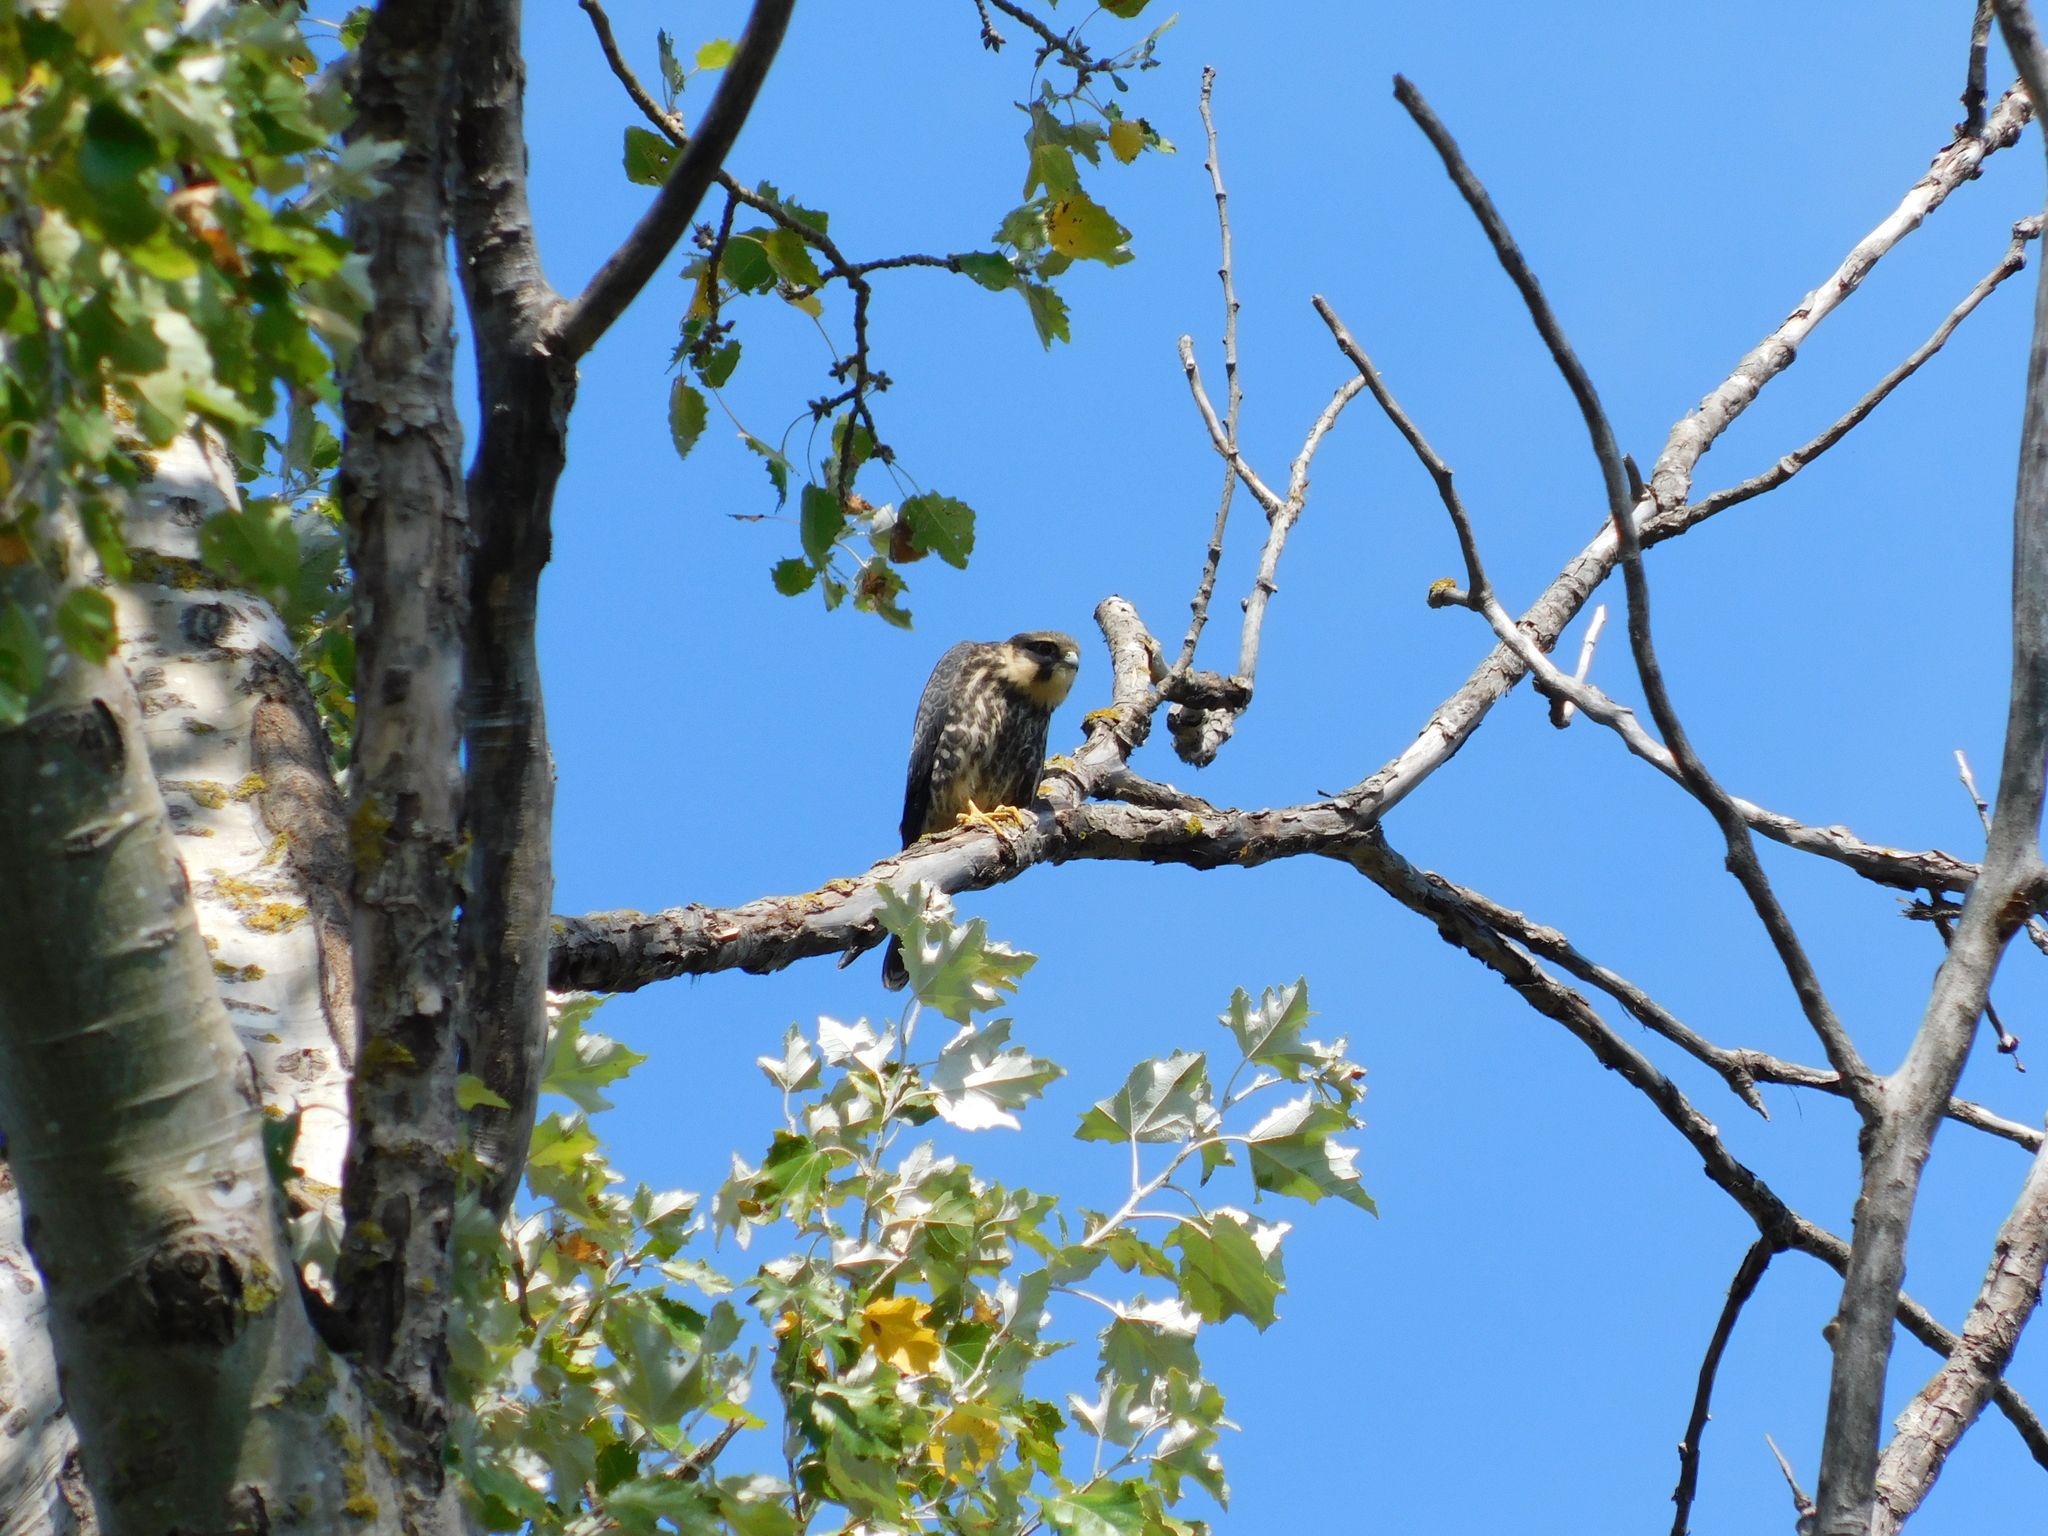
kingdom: Animalia
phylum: Chordata
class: Aves
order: Falconiformes
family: Falconidae
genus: Falco
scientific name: Falco subbuteo
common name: Eurasian hobby
